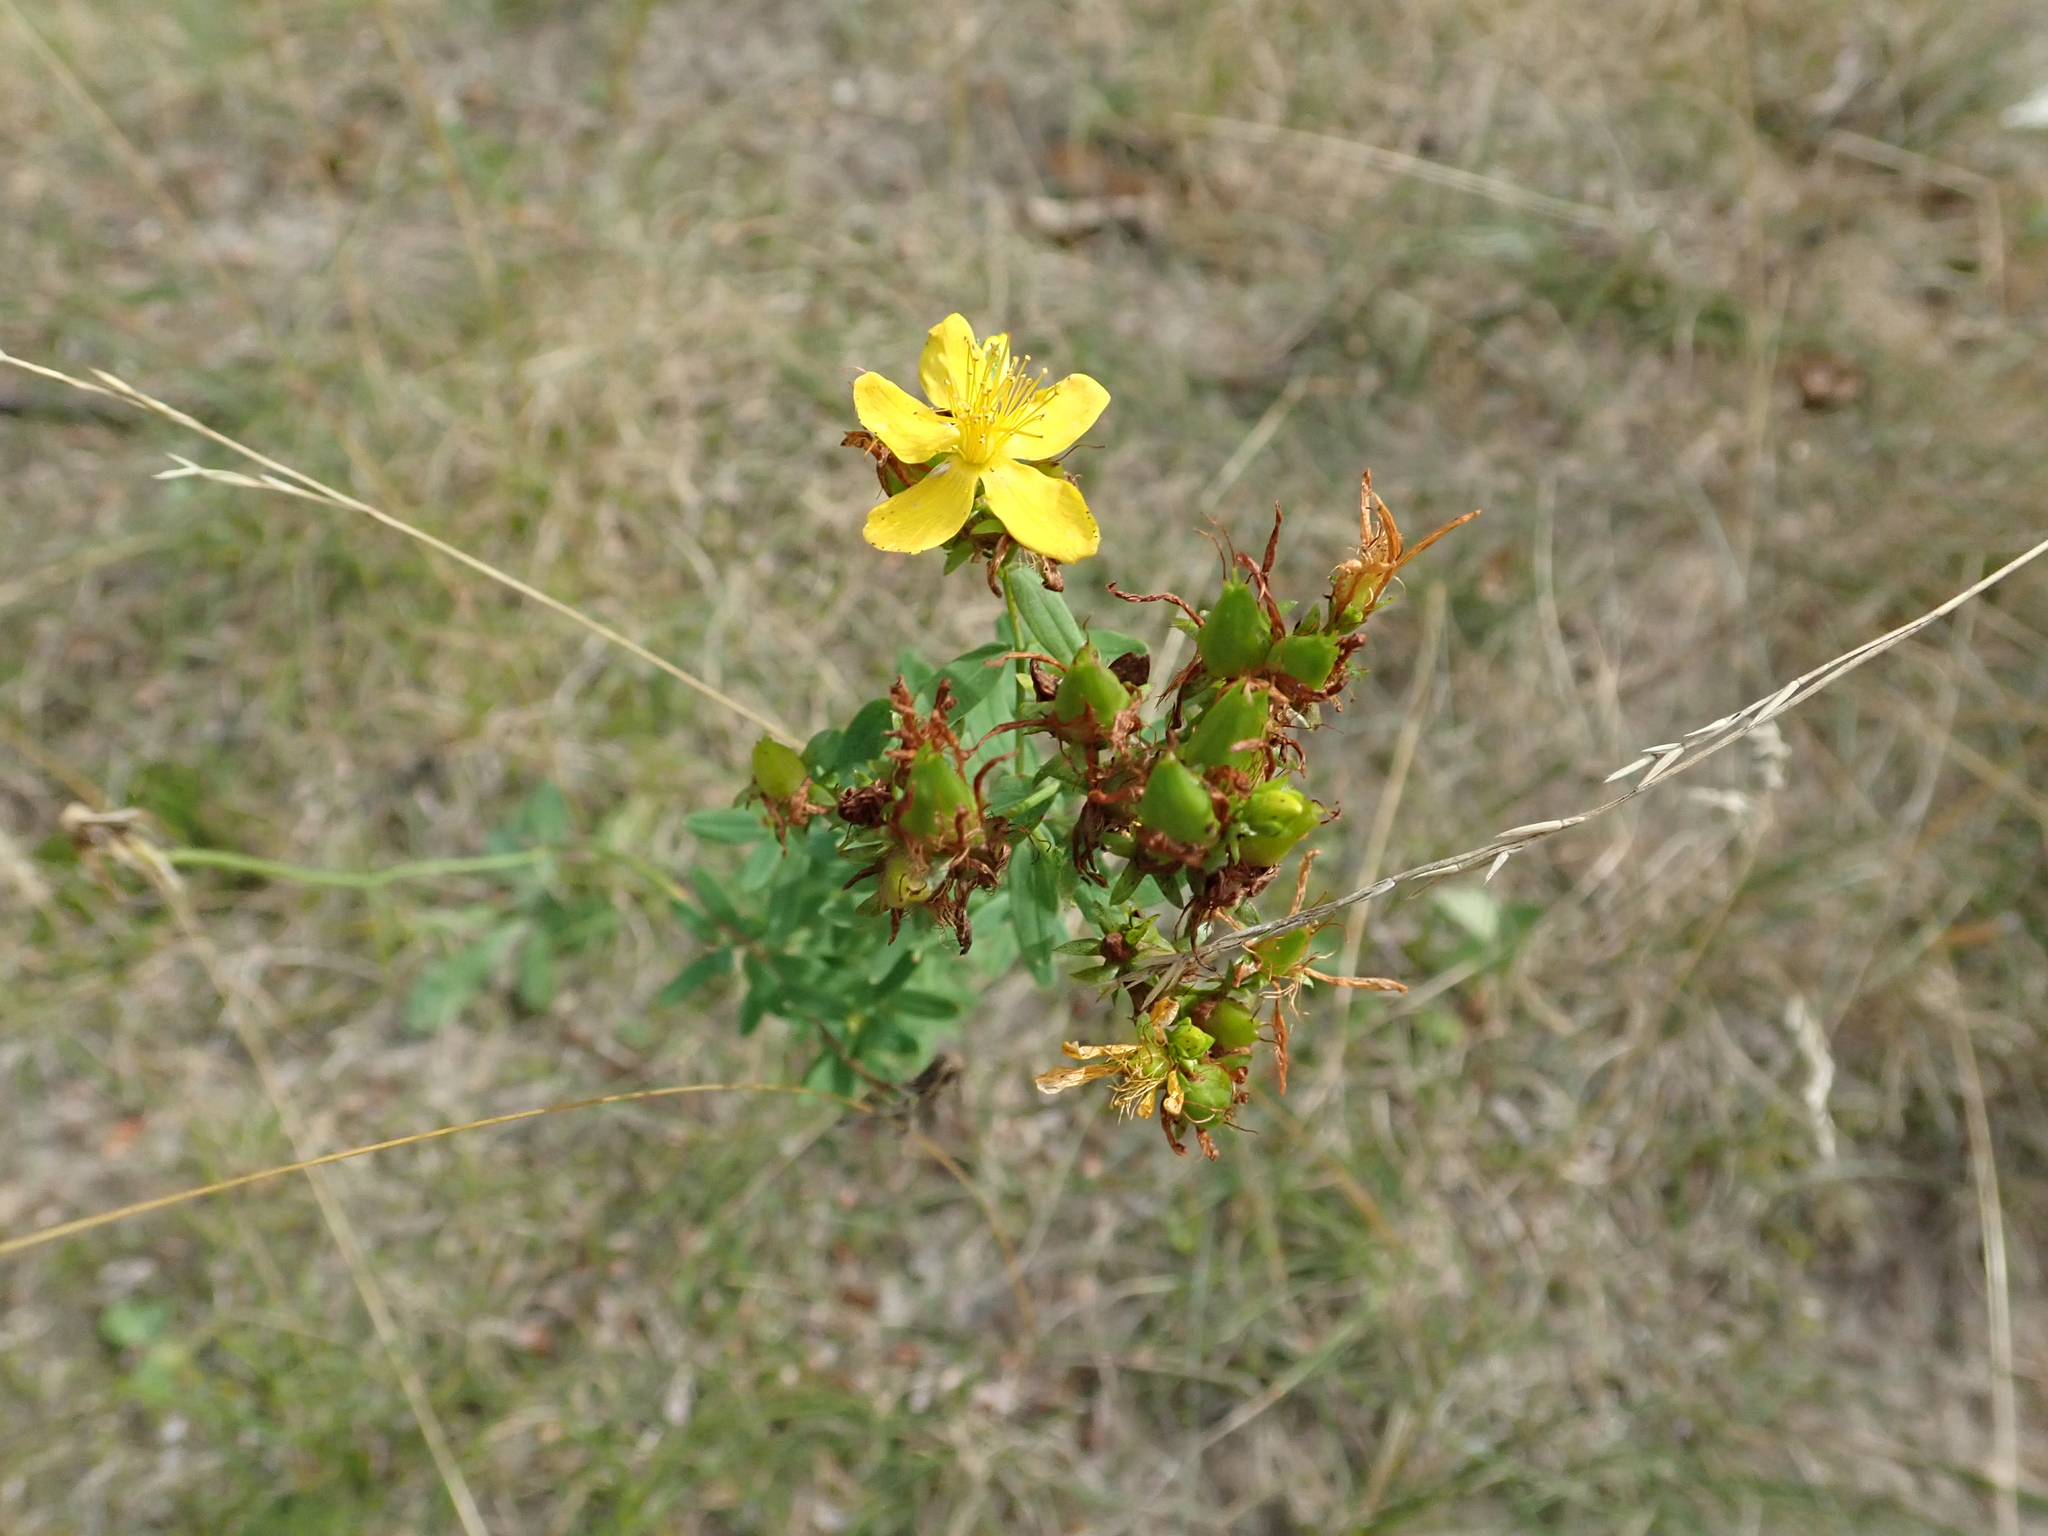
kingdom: Plantae
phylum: Tracheophyta
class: Magnoliopsida
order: Malpighiales
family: Hypericaceae
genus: Hypericum
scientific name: Hypericum perforatum
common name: Common st. johnswort
